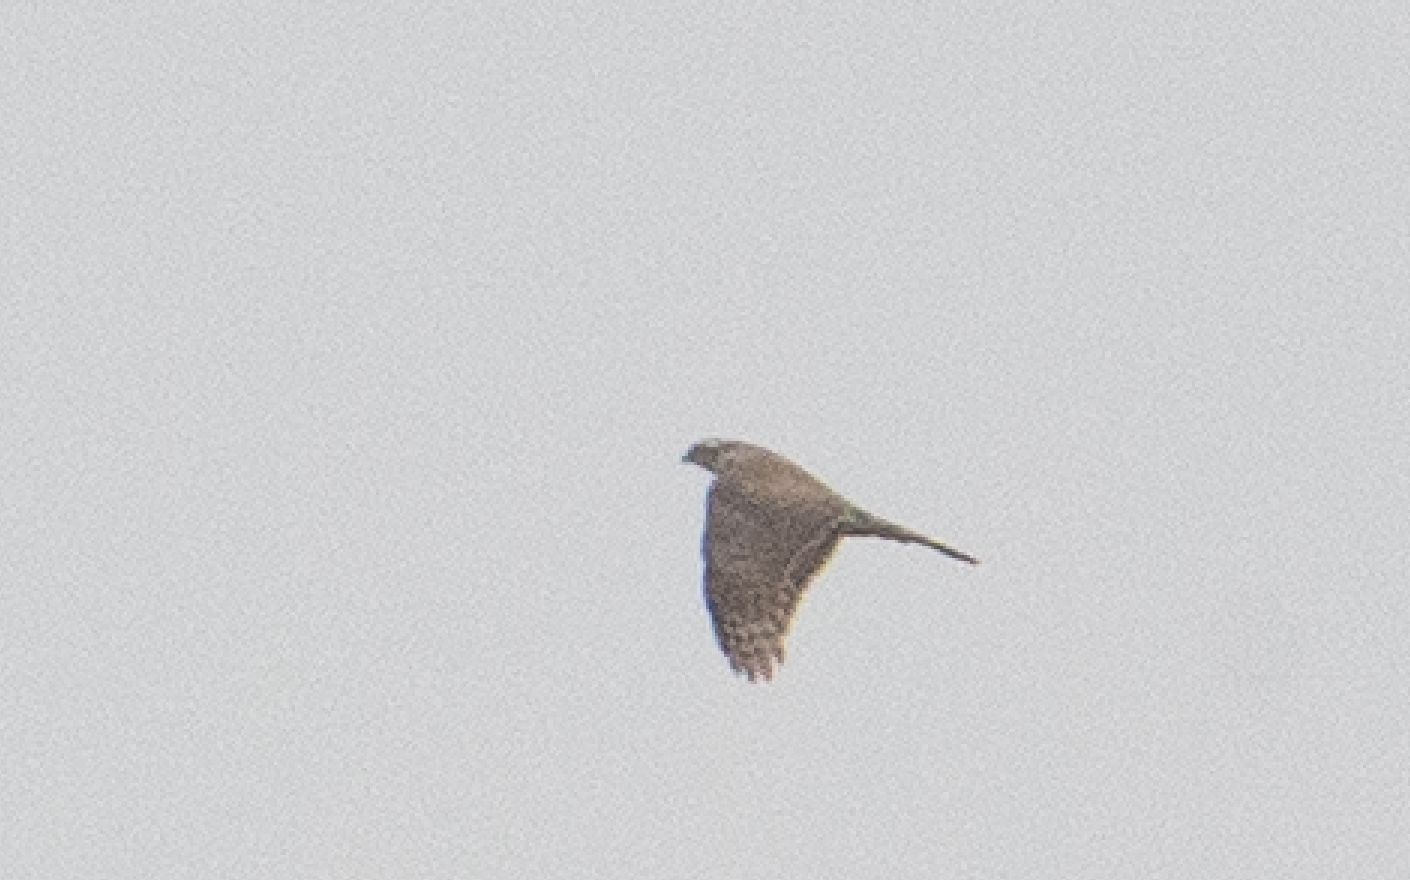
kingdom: Animalia
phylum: Chordata
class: Aves
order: Accipitriformes
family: Accipitridae
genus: Accipiter
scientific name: Accipiter nisus
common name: Eurasian sparrowhawk
